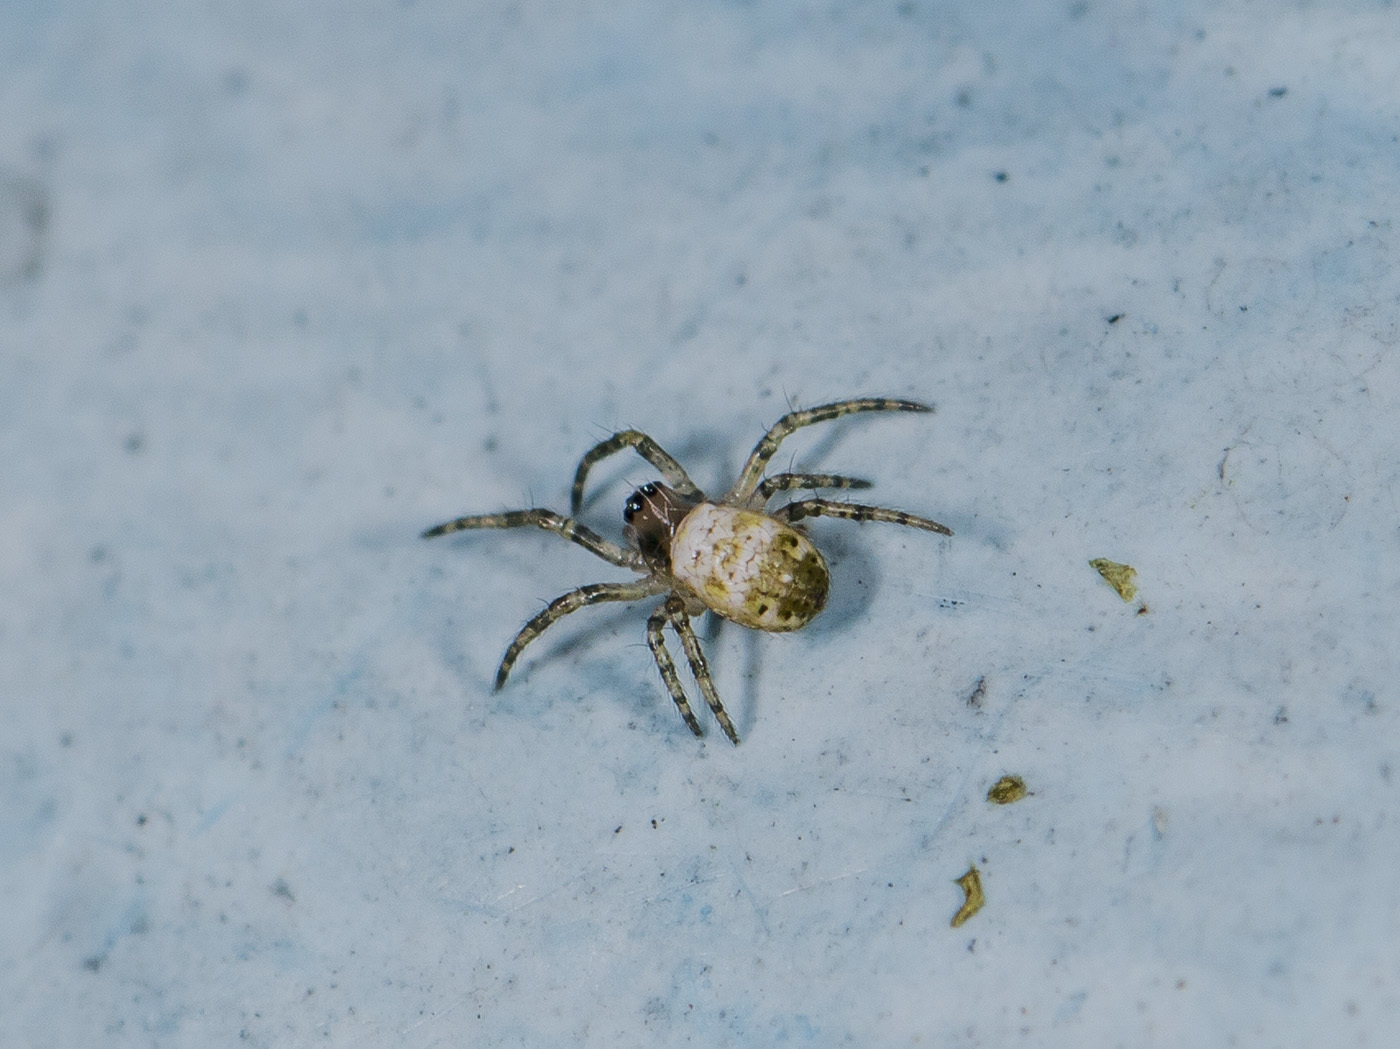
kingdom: Animalia
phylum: Arthropoda
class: Arachnida
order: Araneae
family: Araneidae
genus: Argiope
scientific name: Argiope bruennichi
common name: Wasp spider
